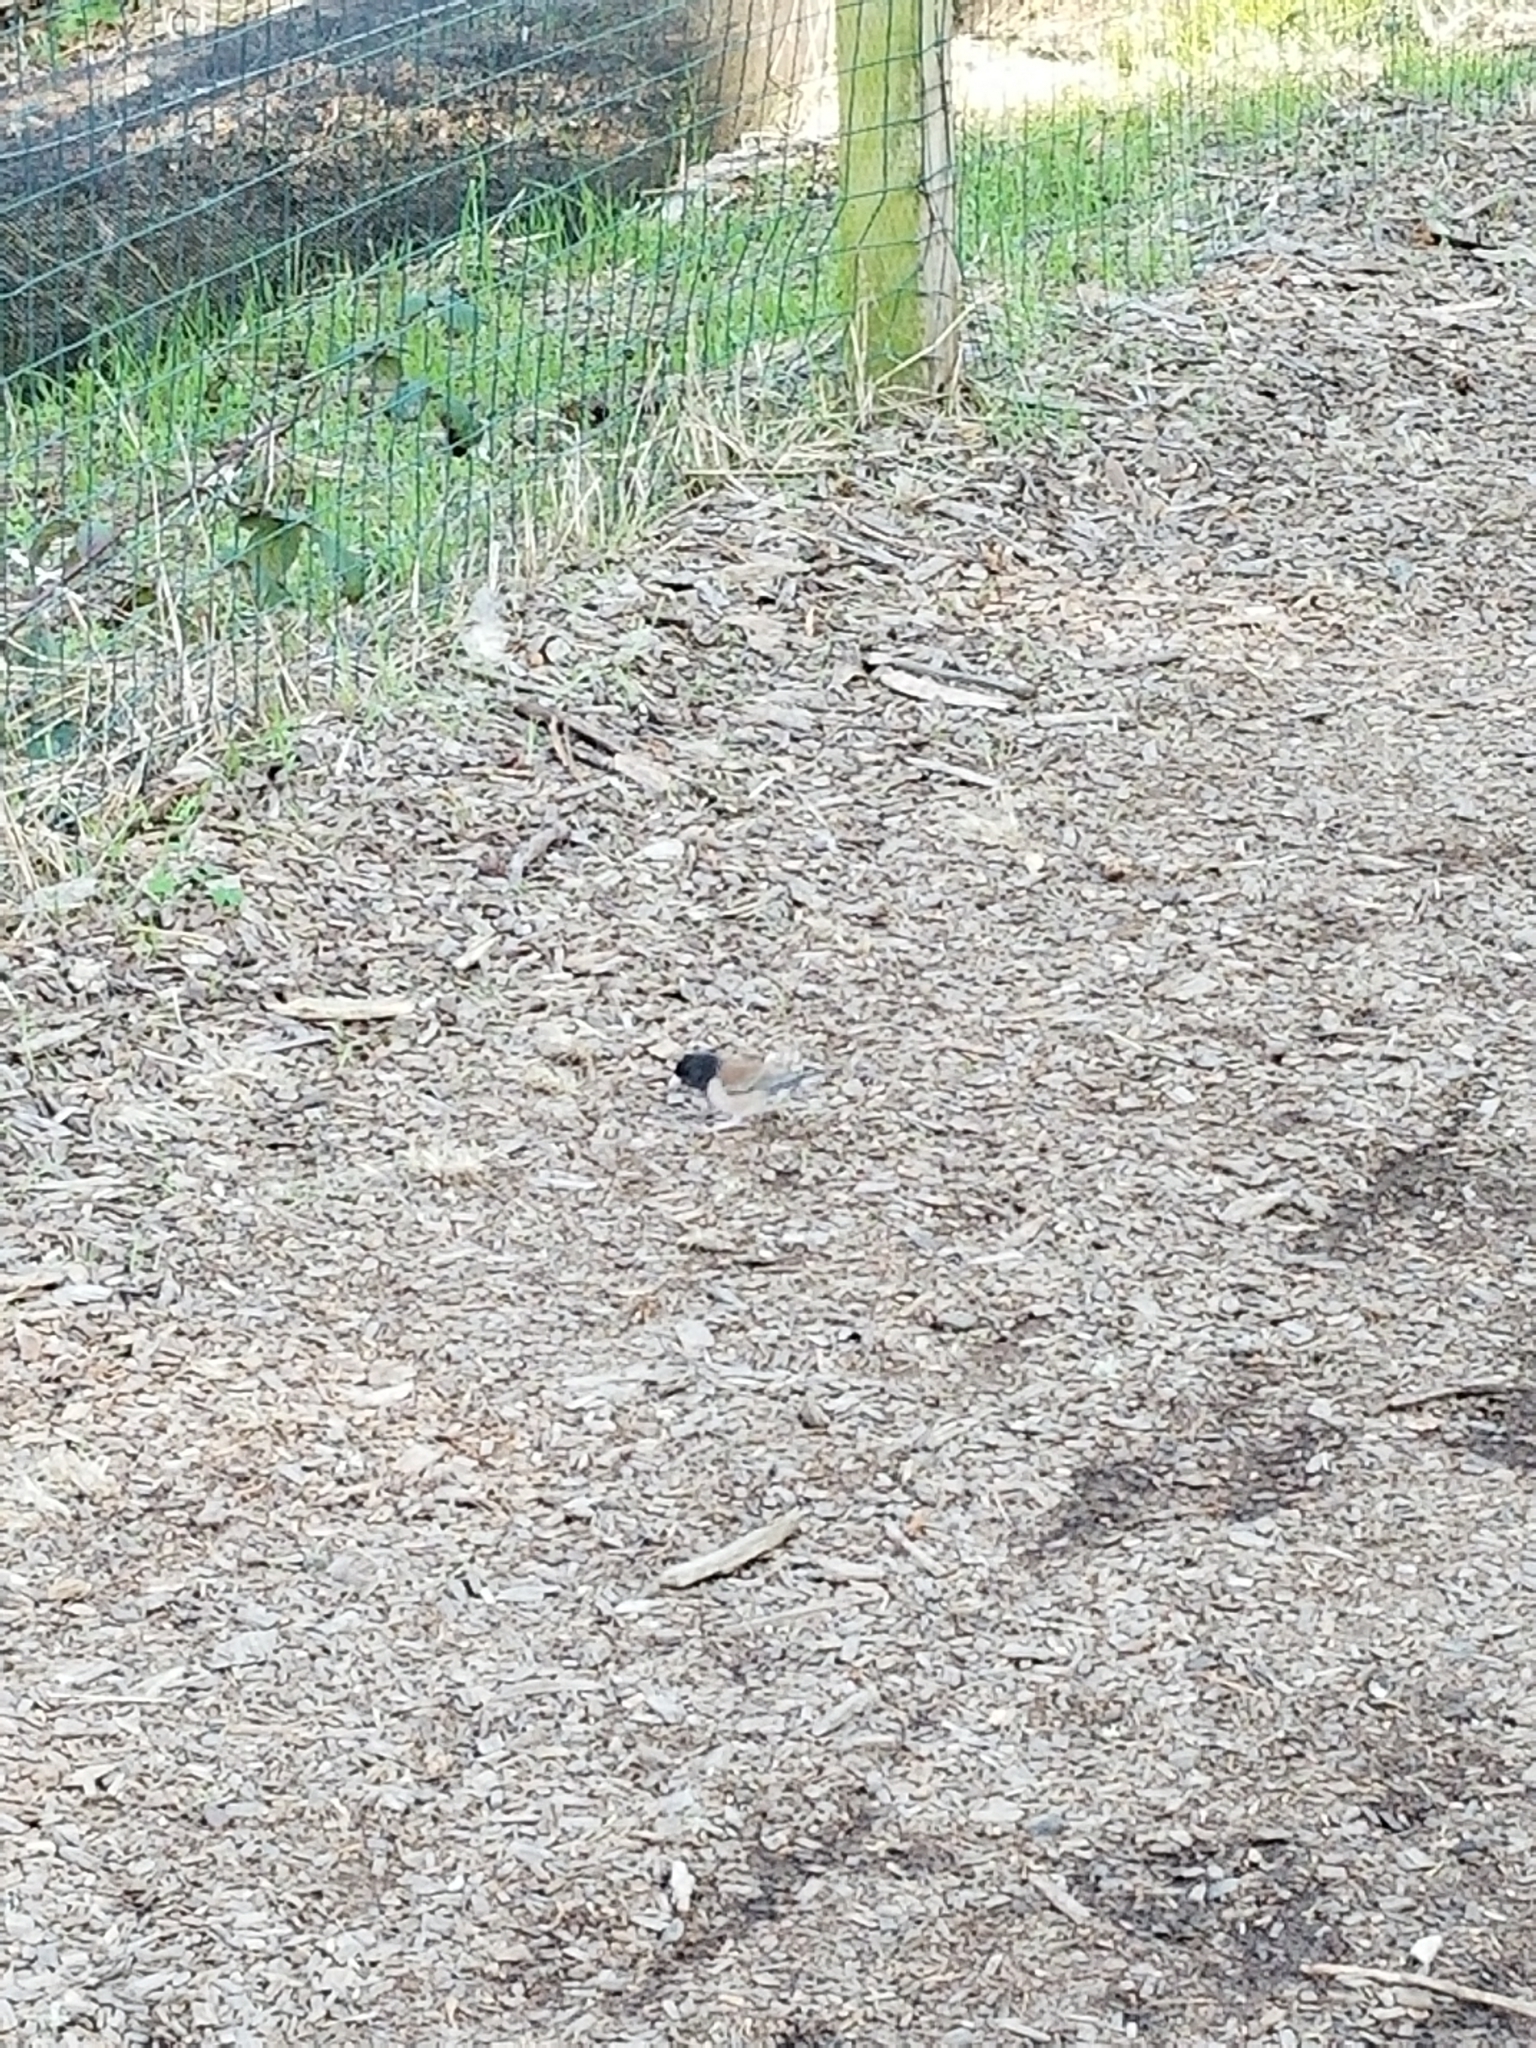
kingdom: Animalia
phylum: Chordata
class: Aves
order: Passeriformes
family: Passerellidae
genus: Junco
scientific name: Junco hyemalis
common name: Dark-eyed junco
